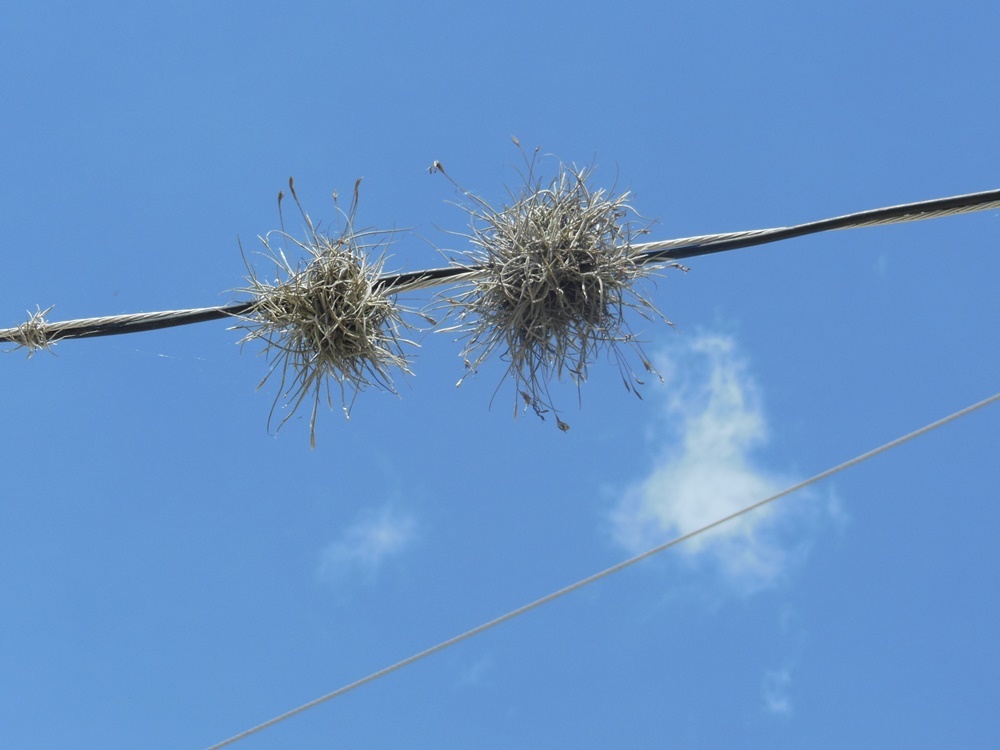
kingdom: Plantae
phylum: Tracheophyta
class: Liliopsida
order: Poales
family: Bromeliaceae
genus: Tillandsia
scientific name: Tillandsia recurvata
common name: Small ballmoss
